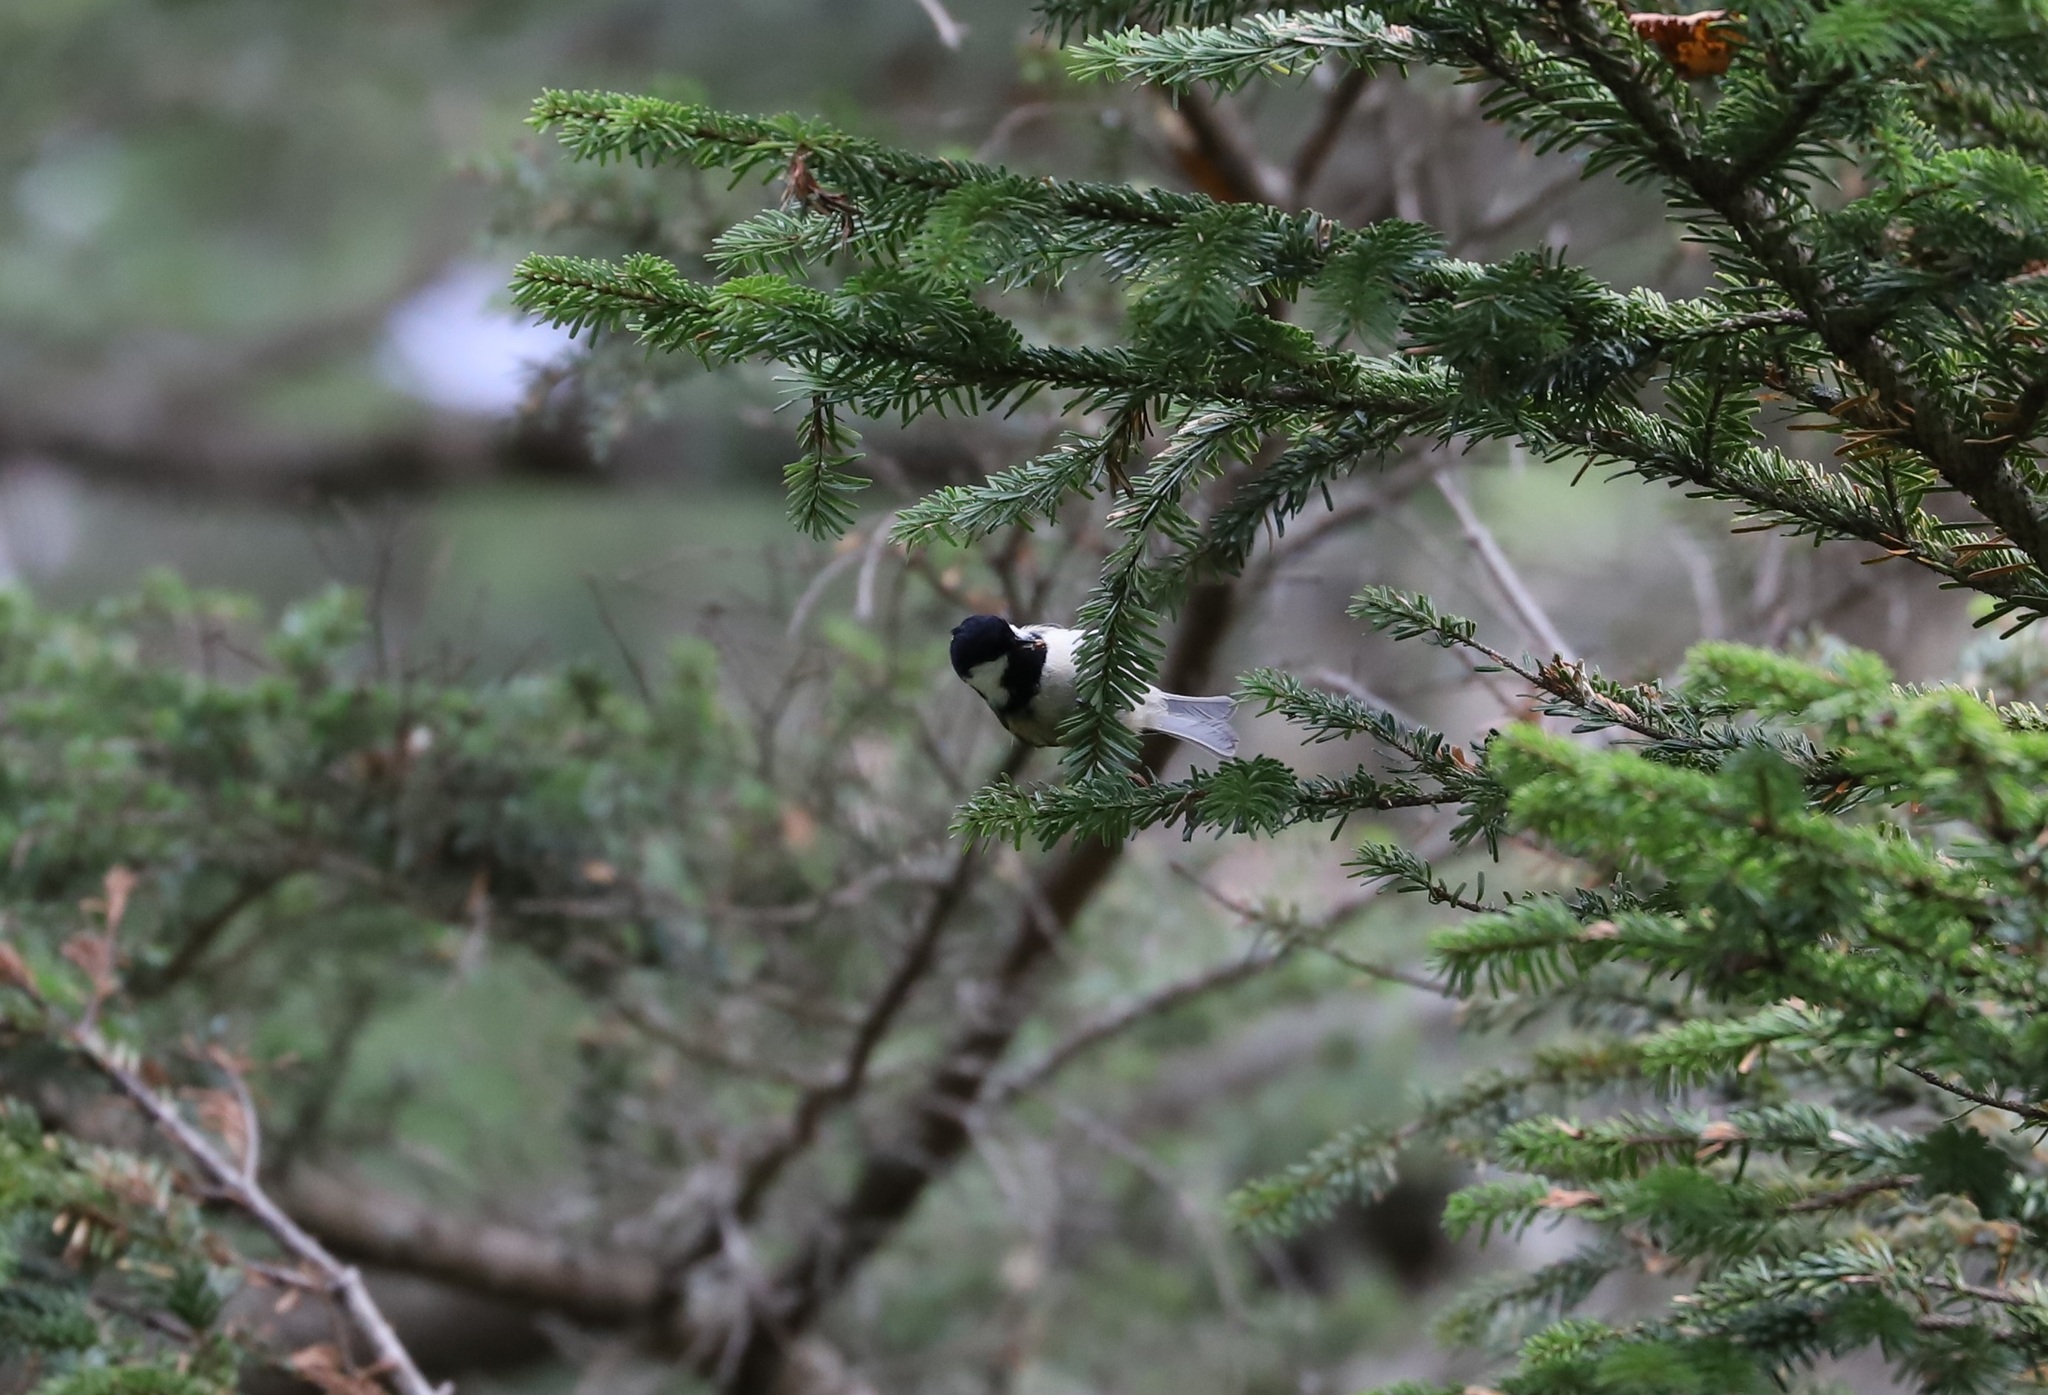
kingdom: Animalia
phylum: Chordata
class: Aves
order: Passeriformes
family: Paridae
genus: Periparus
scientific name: Periparus ater
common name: Coal tit
